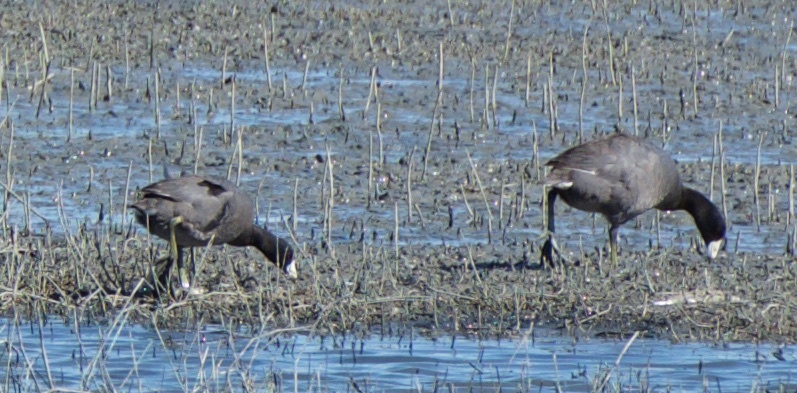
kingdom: Animalia
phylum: Chordata
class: Aves
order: Gruiformes
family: Rallidae
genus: Fulica
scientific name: Fulica americana
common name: American coot
